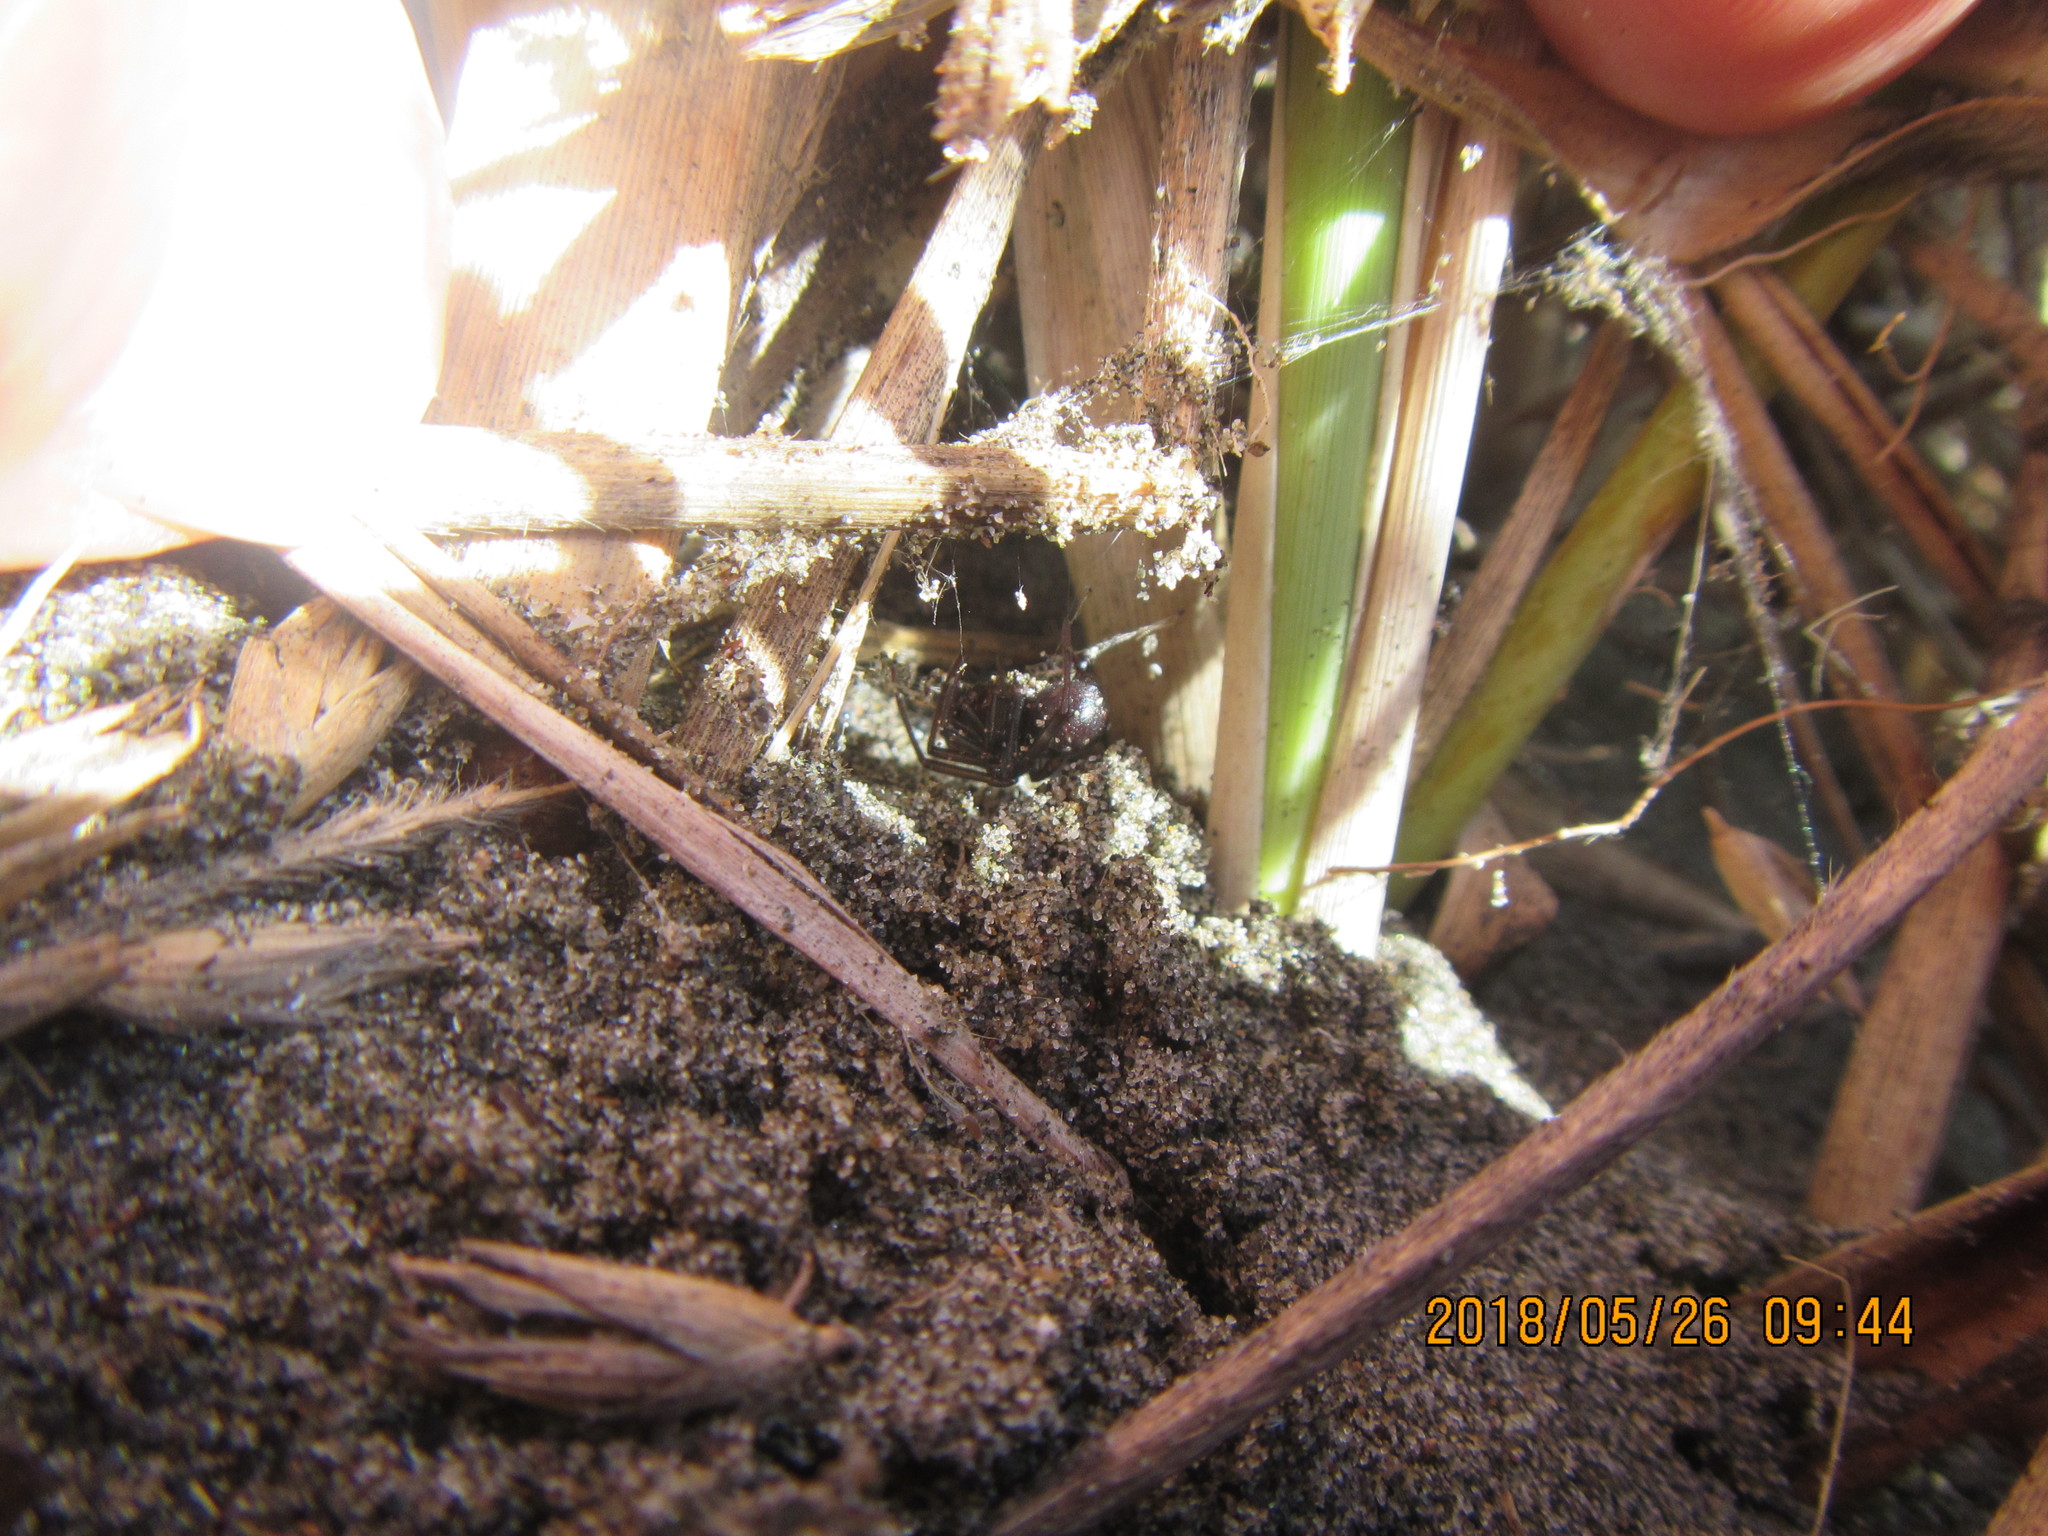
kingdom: Animalia
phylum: Arthropoda
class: Arachnida
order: Araneae
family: Theridiidae
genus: Steatoda
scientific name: Steatoda capensis
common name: Cobweb weaver
